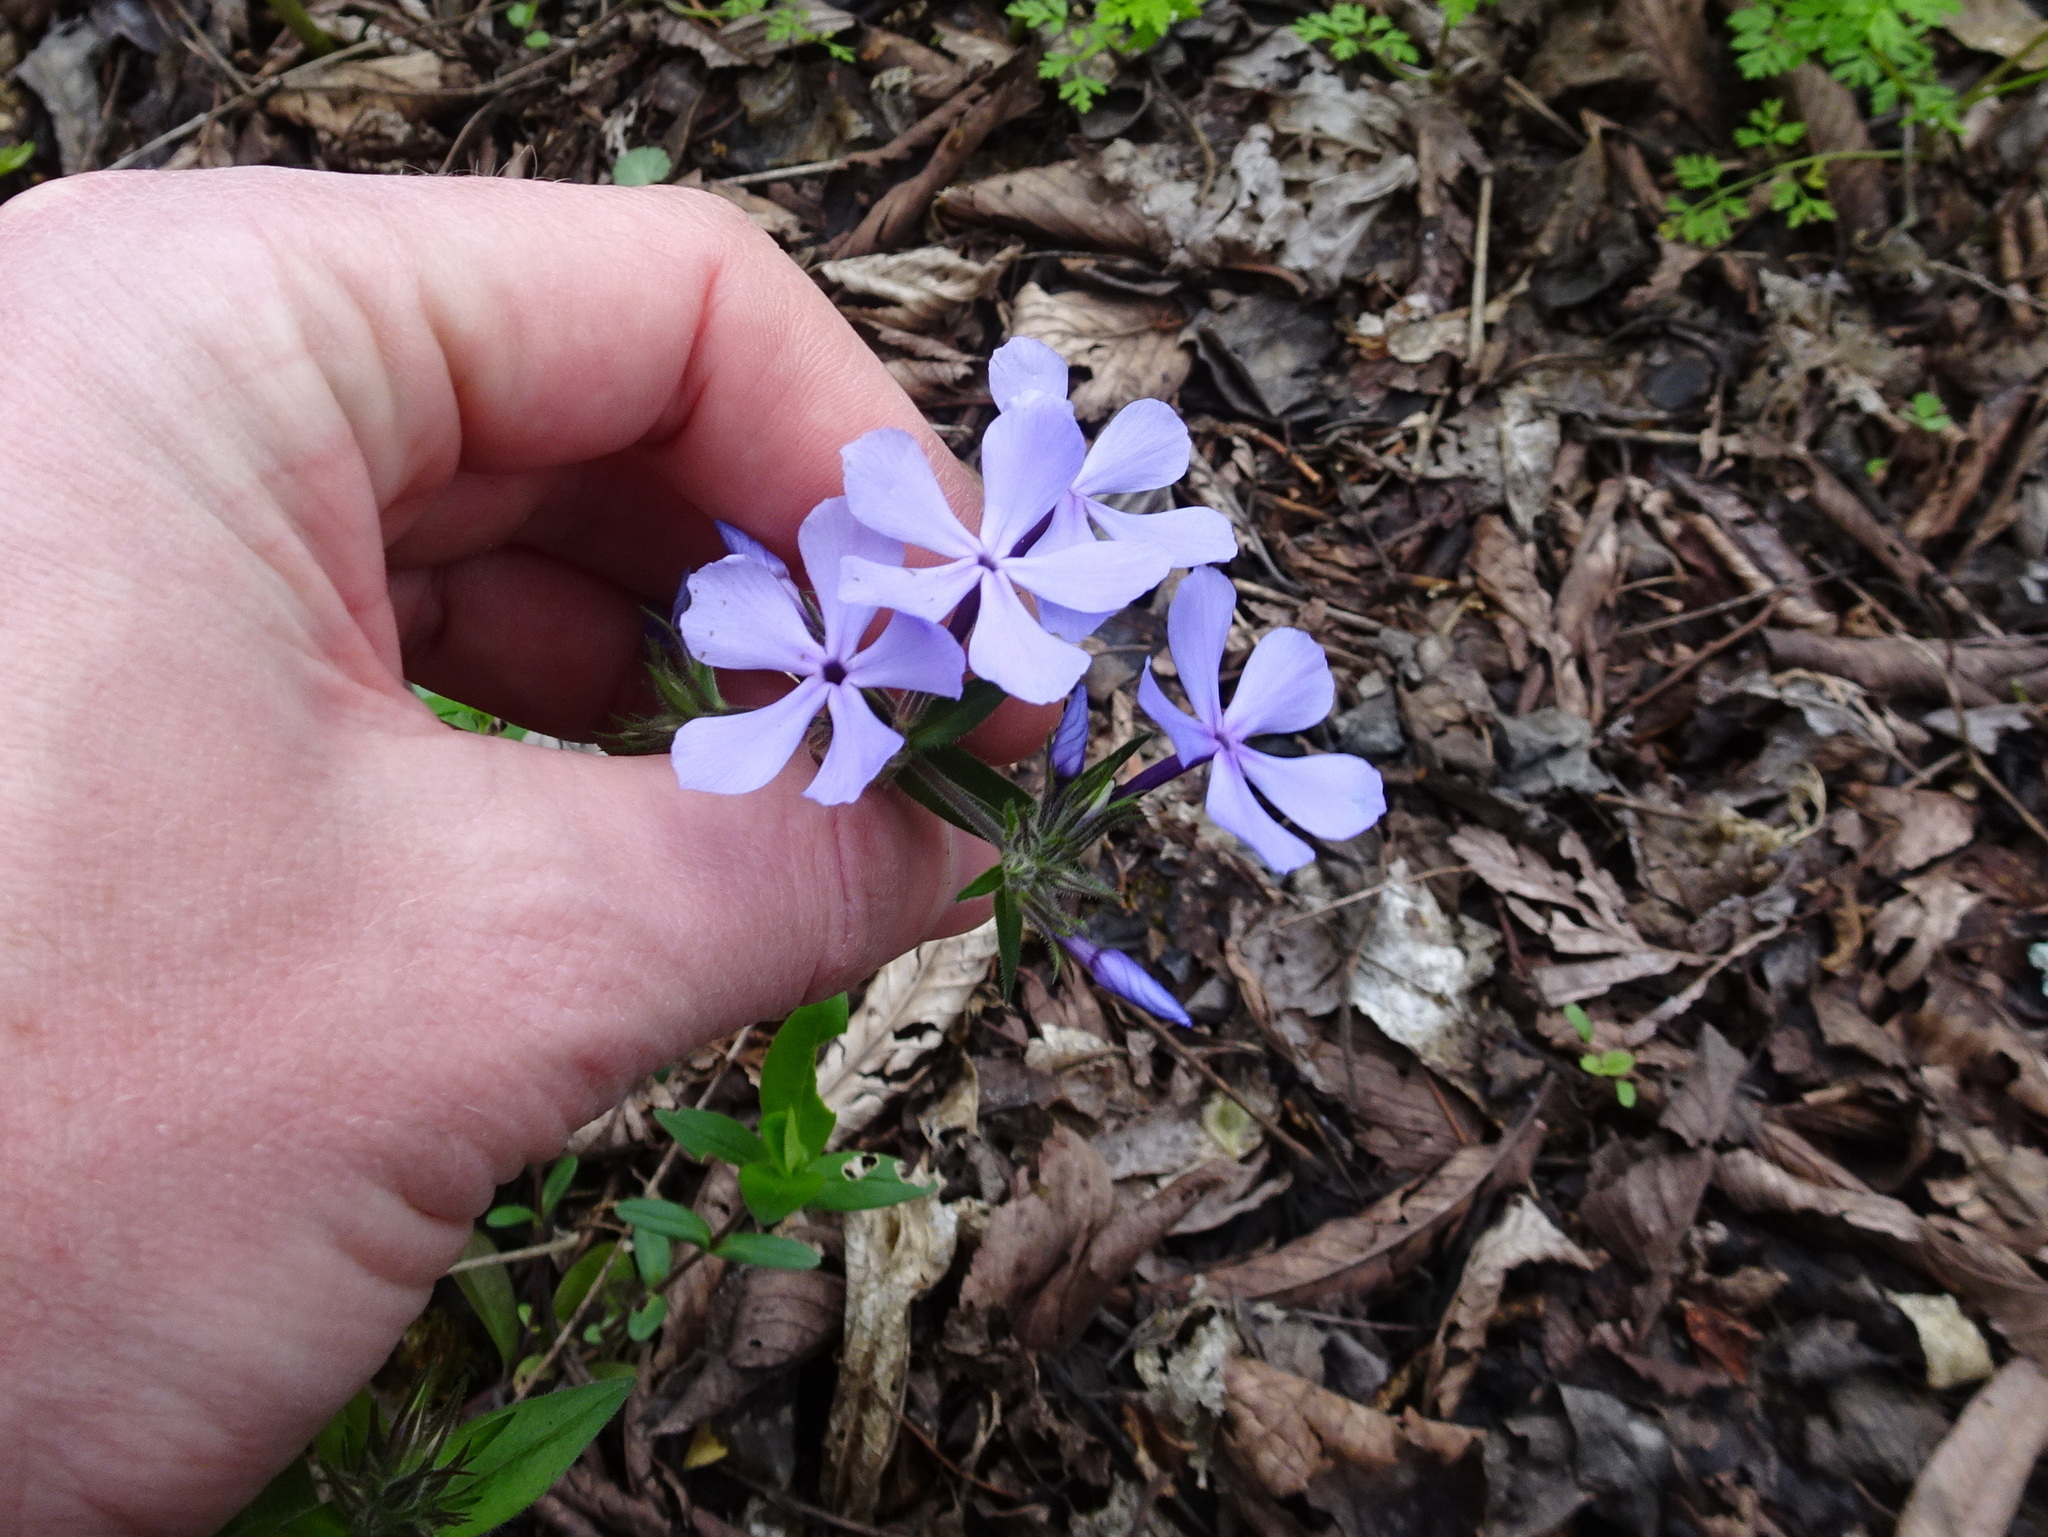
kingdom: Plantae
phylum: Tracheophyta
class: Magnoliopsida
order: Ericales
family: Polemoniaceae
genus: Phlox
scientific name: Phlox divaricata
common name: Blue phlox
